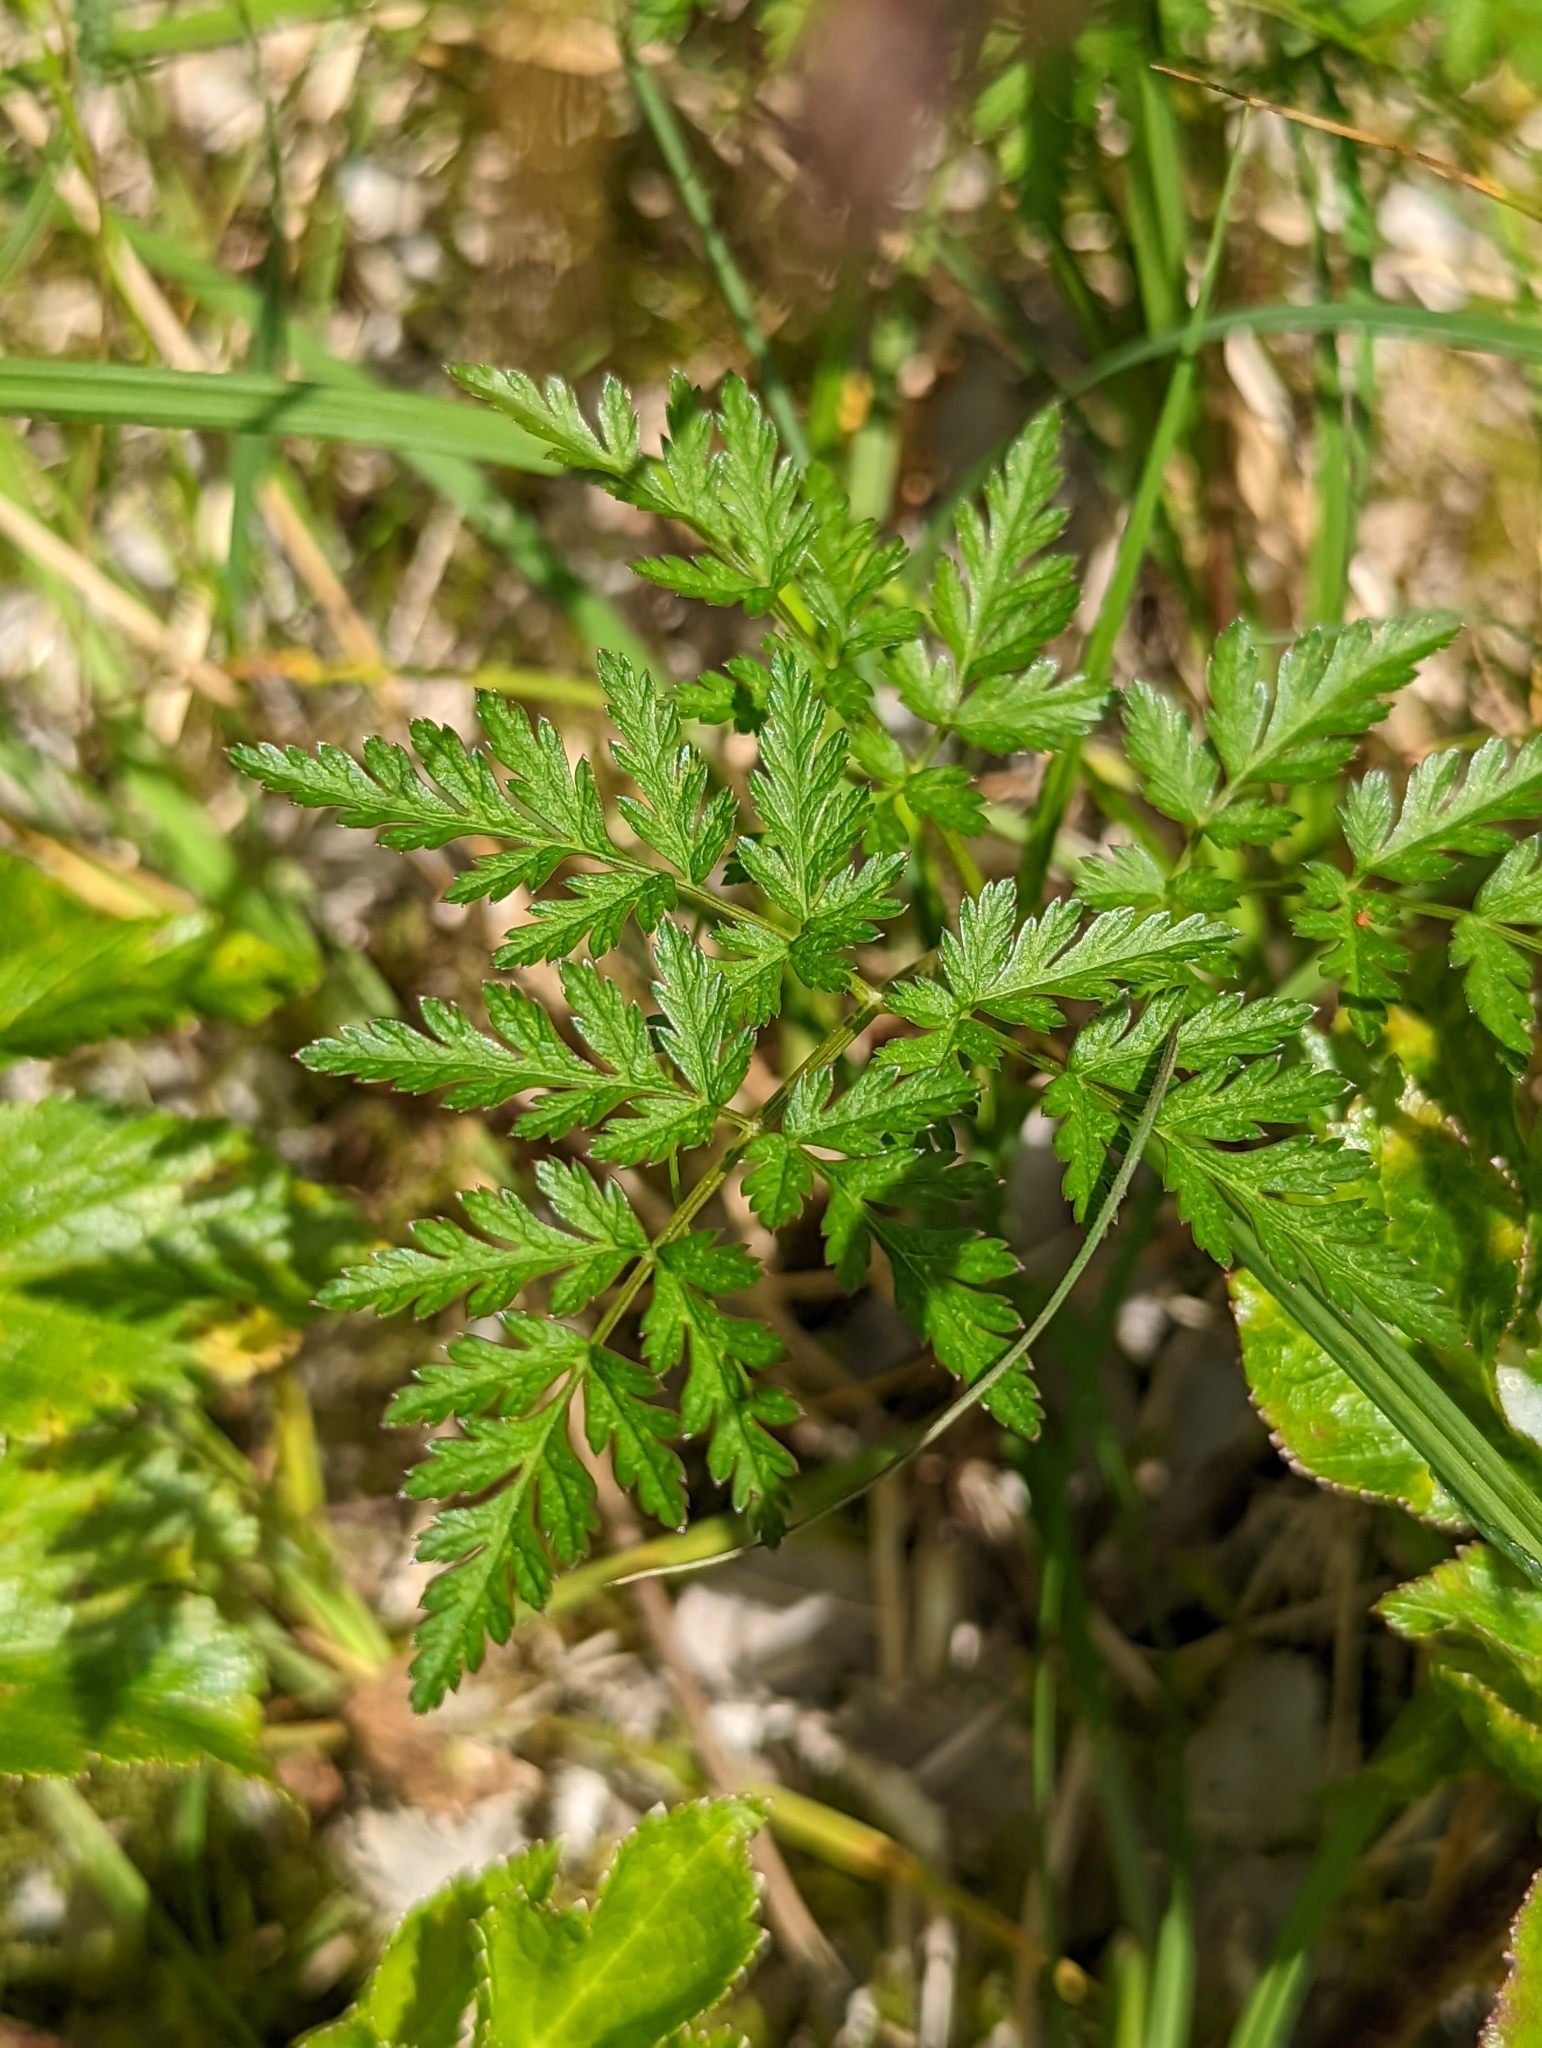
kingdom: Plantae
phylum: Tracheophyta
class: Magnoliopsida
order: Apiales
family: Apiaceae
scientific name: Apiaceae
